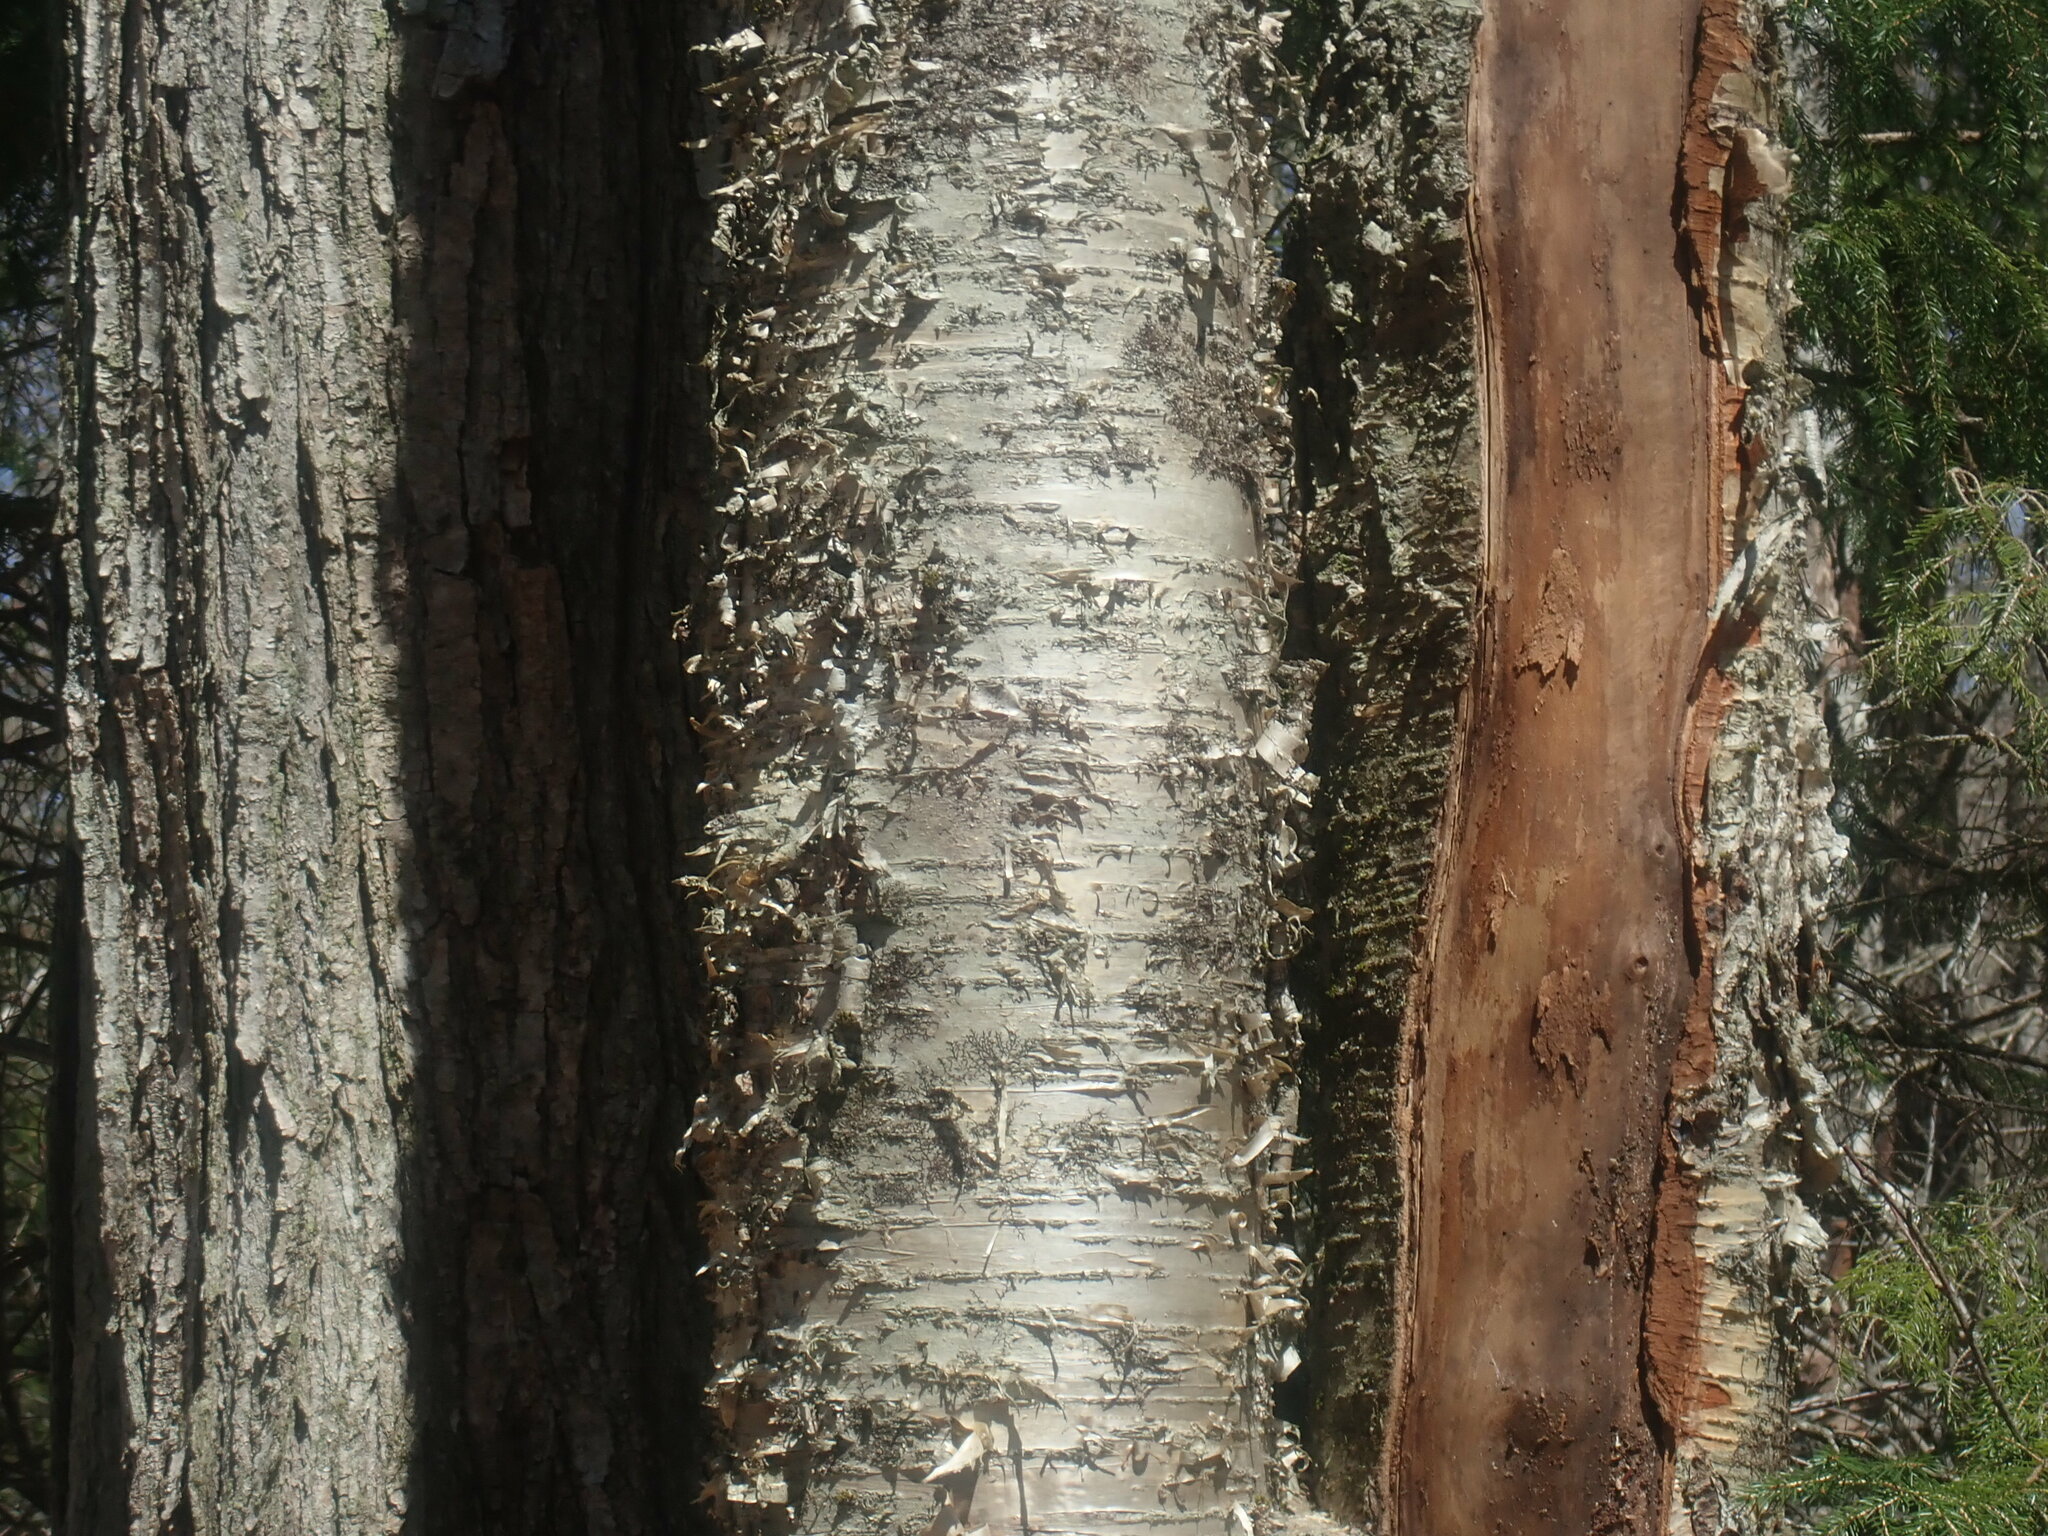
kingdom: Plantae
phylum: Tracheophyta
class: Magnoliopsida
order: Fagales
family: Betulaceae
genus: Betula
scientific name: Betula alleghaniensis
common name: Yellow birch
